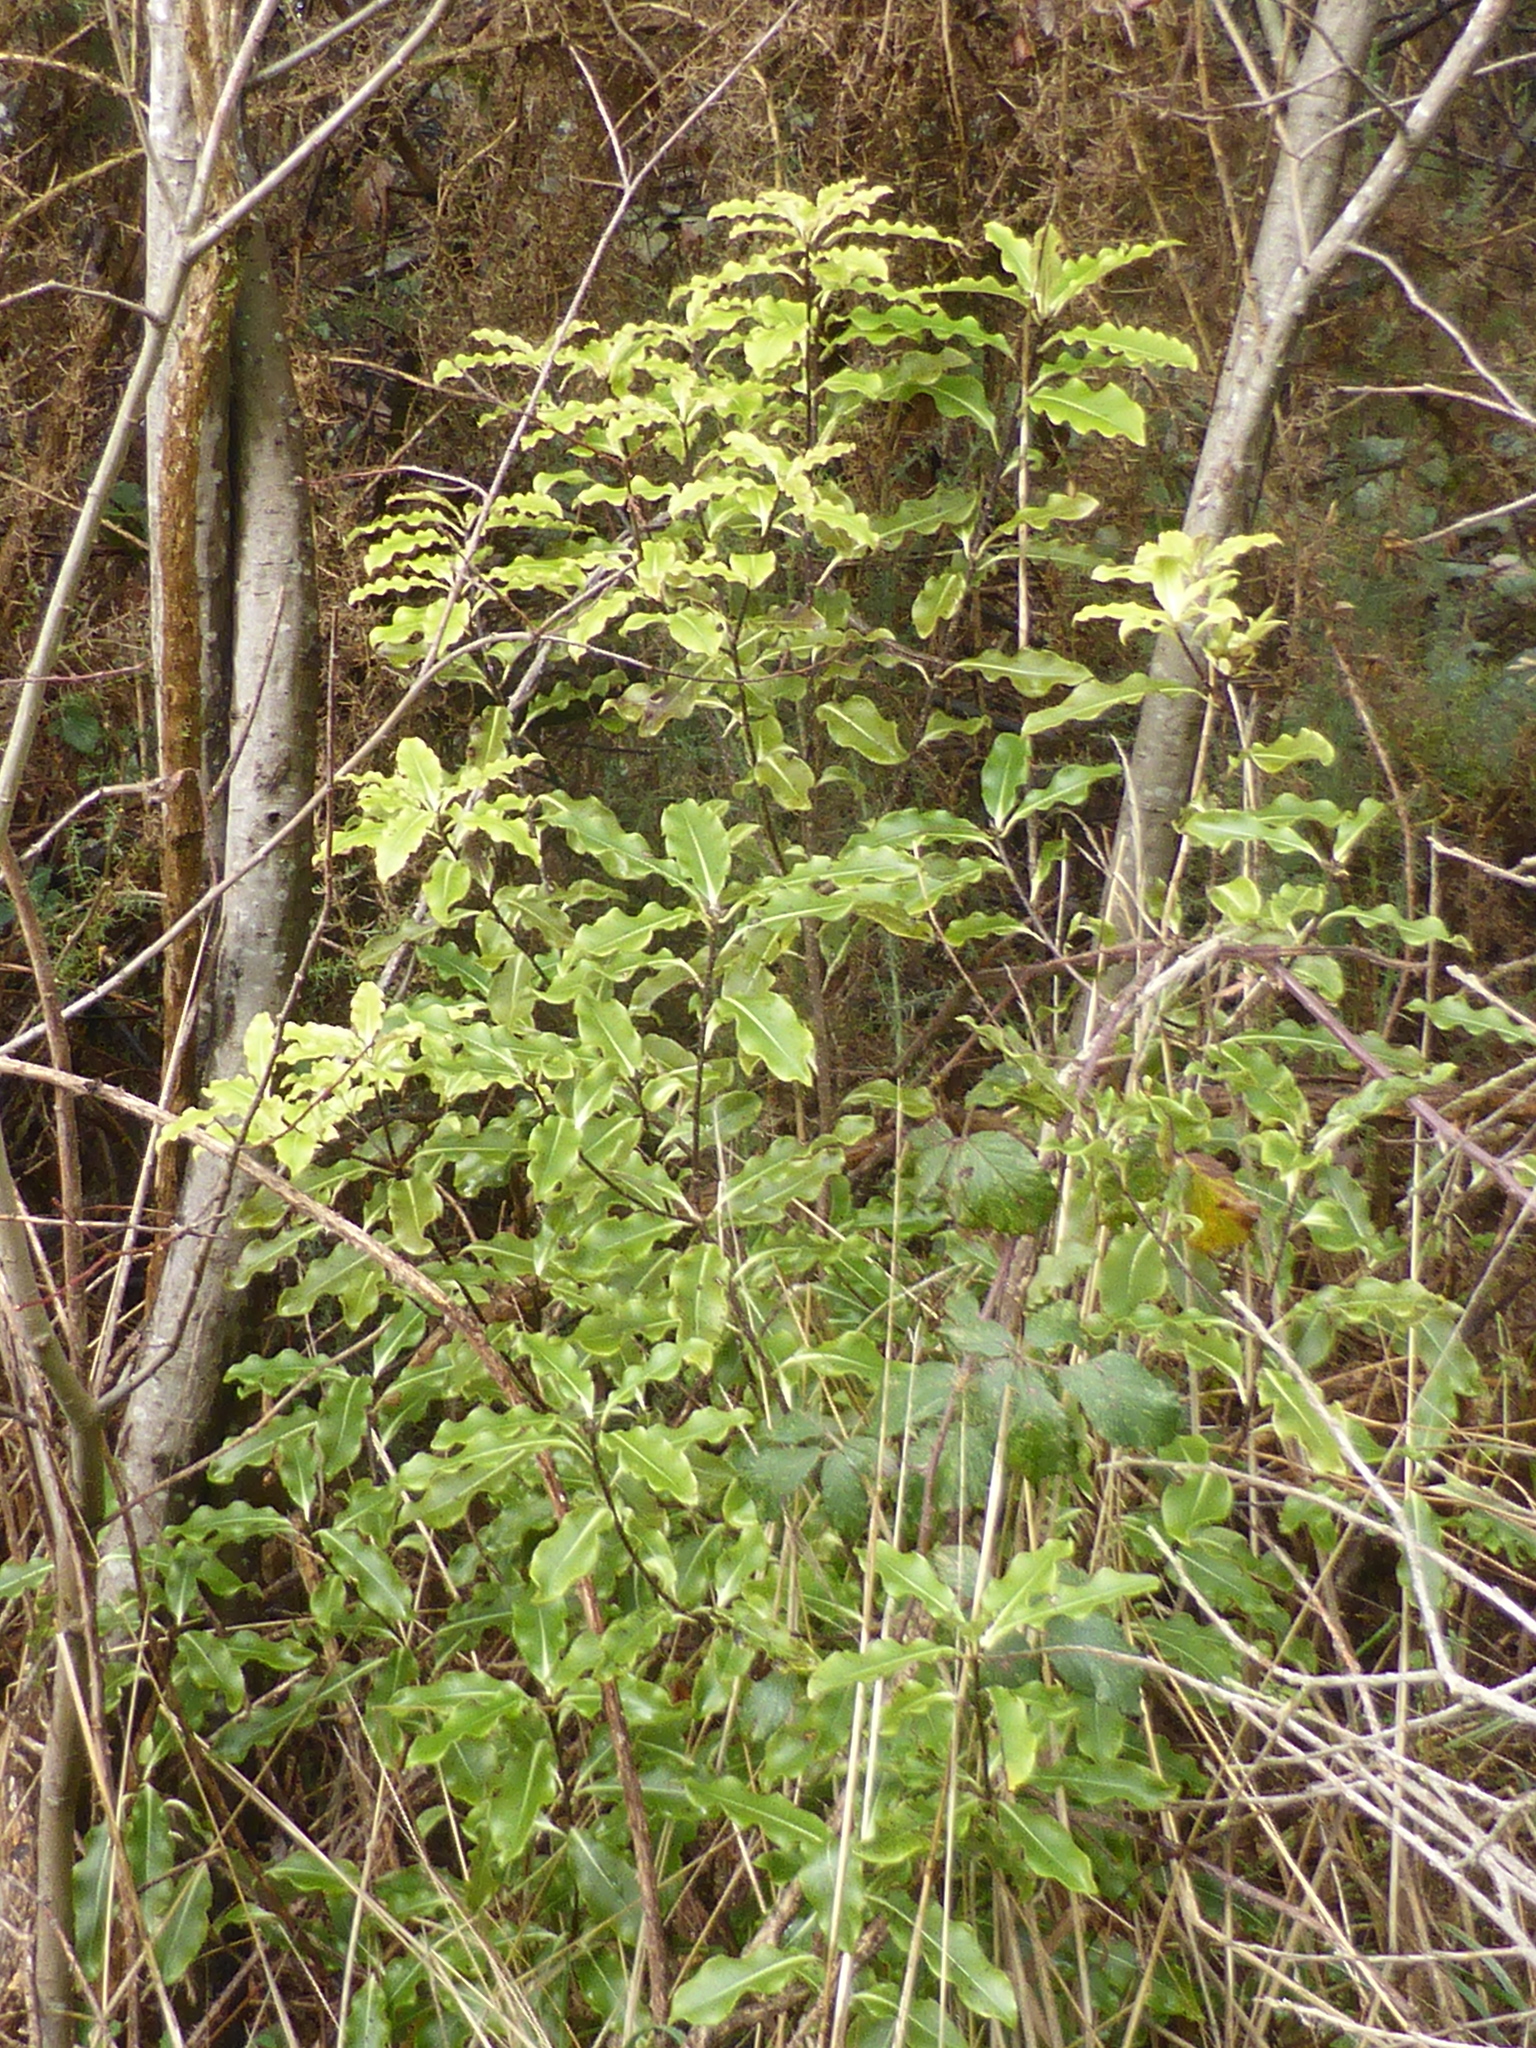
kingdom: Plantae
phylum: Tracheophyta
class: Magnoliopsida
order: Apiales
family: Pittosporaceae
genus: Pittosporum
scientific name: Pittosporum eugenioides
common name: Lemonwood
